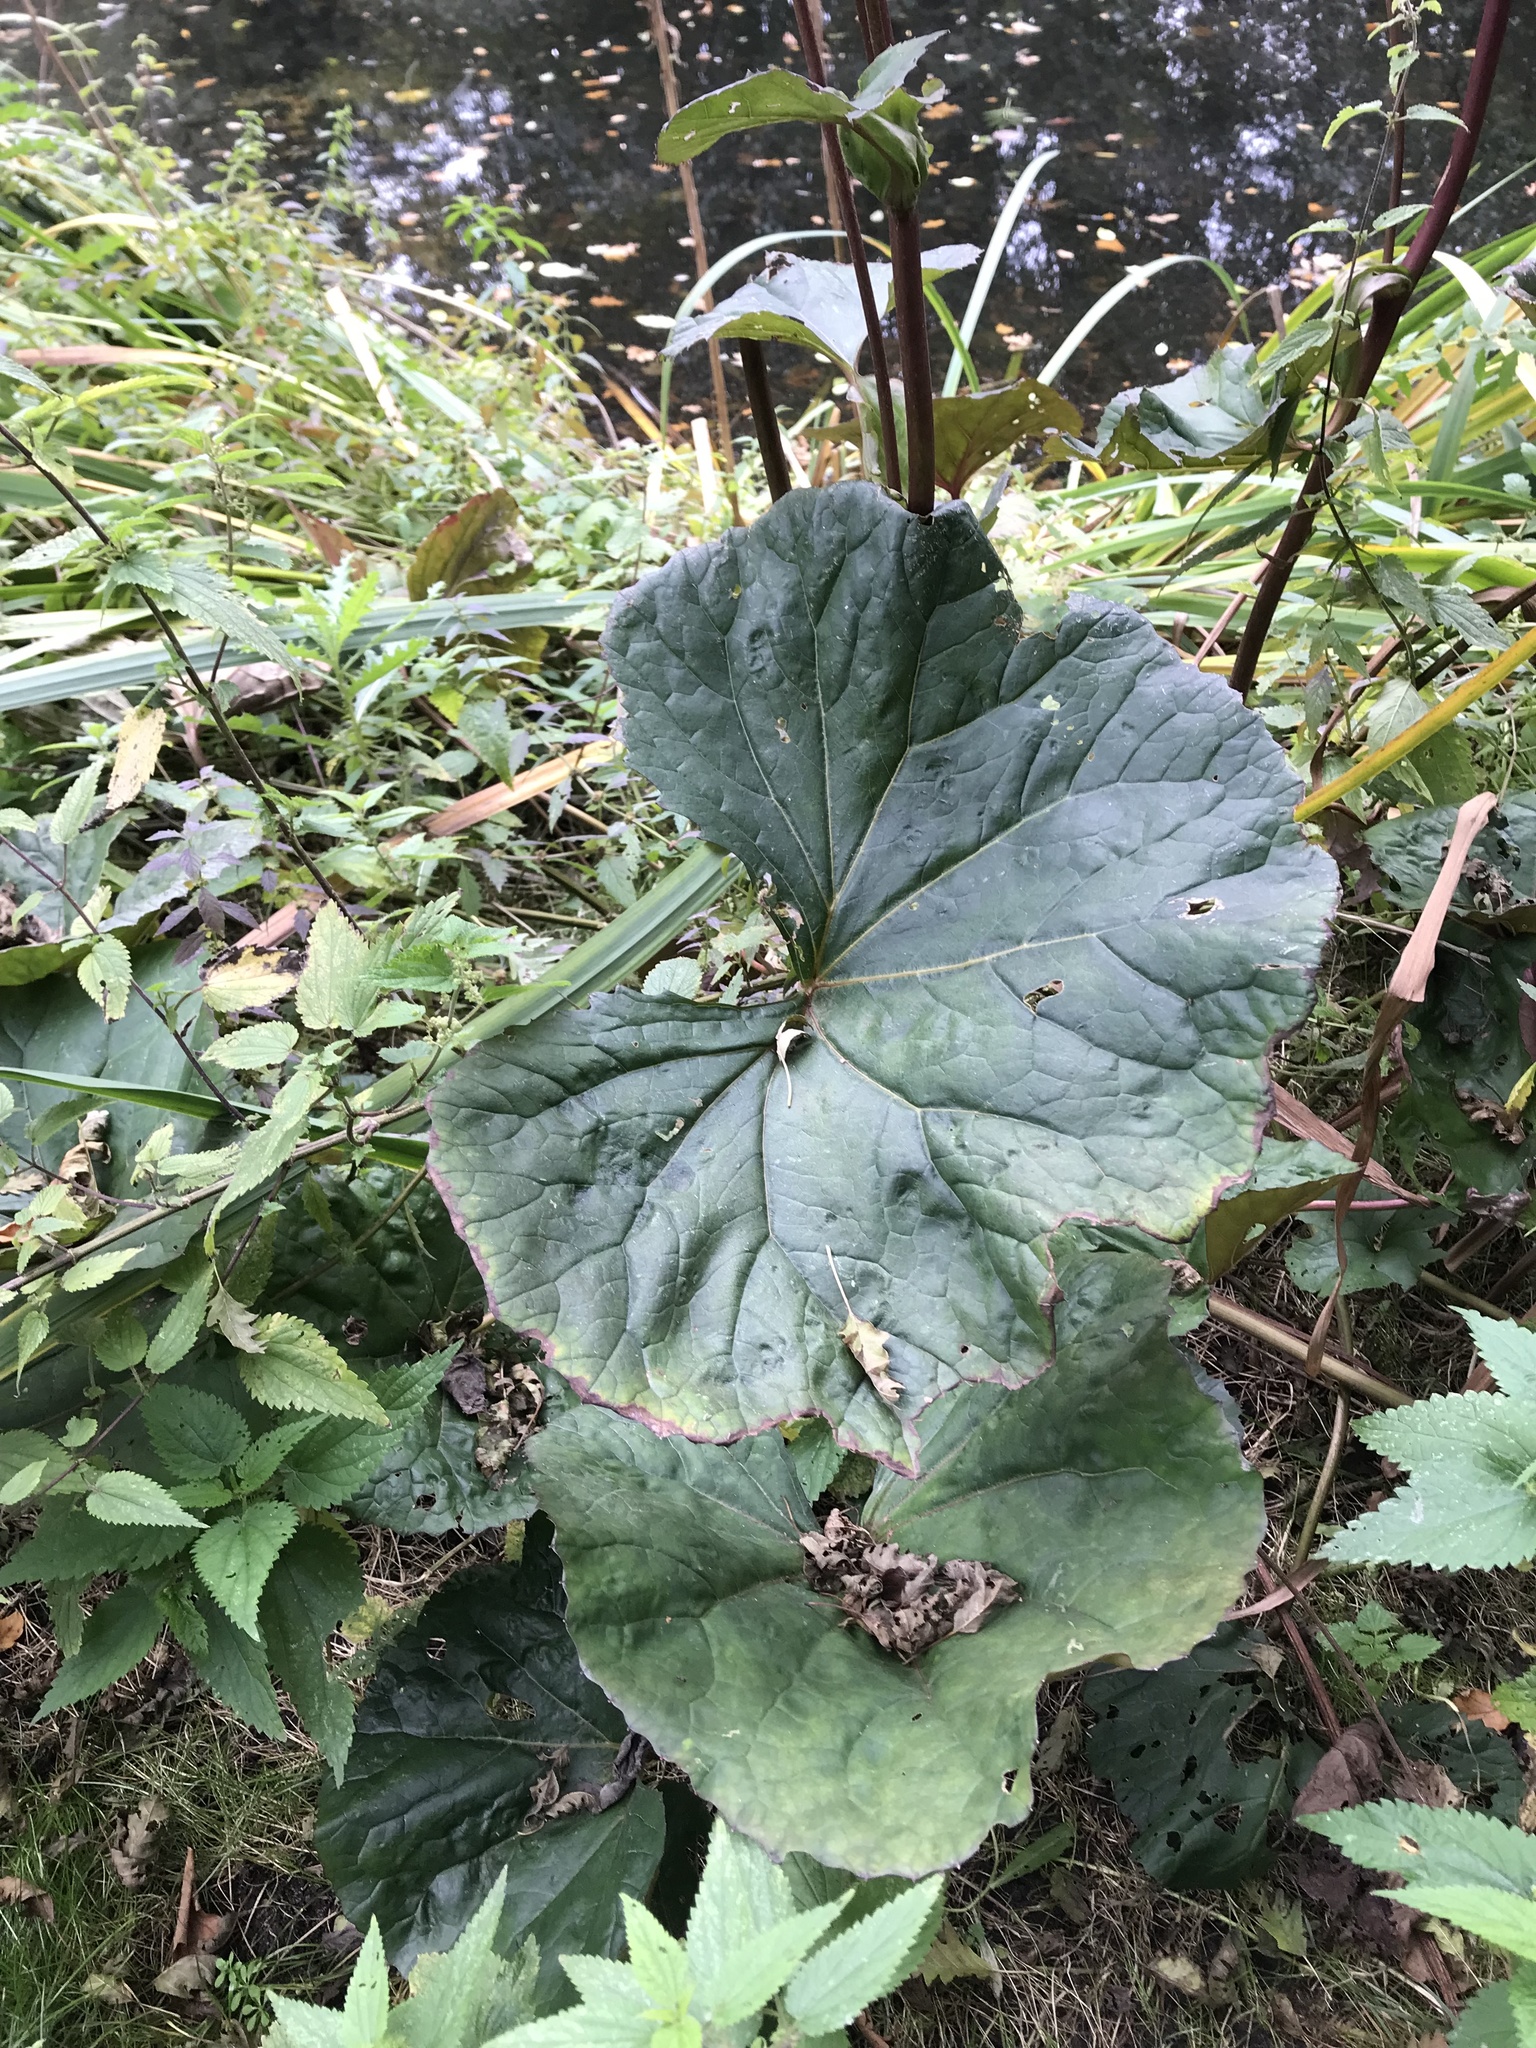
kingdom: Plantae
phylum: Tracheophyta
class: Magnoliopsida
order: Asterales
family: Asteraceae
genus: Petasites
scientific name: Petasites hybridus
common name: Butterbur
